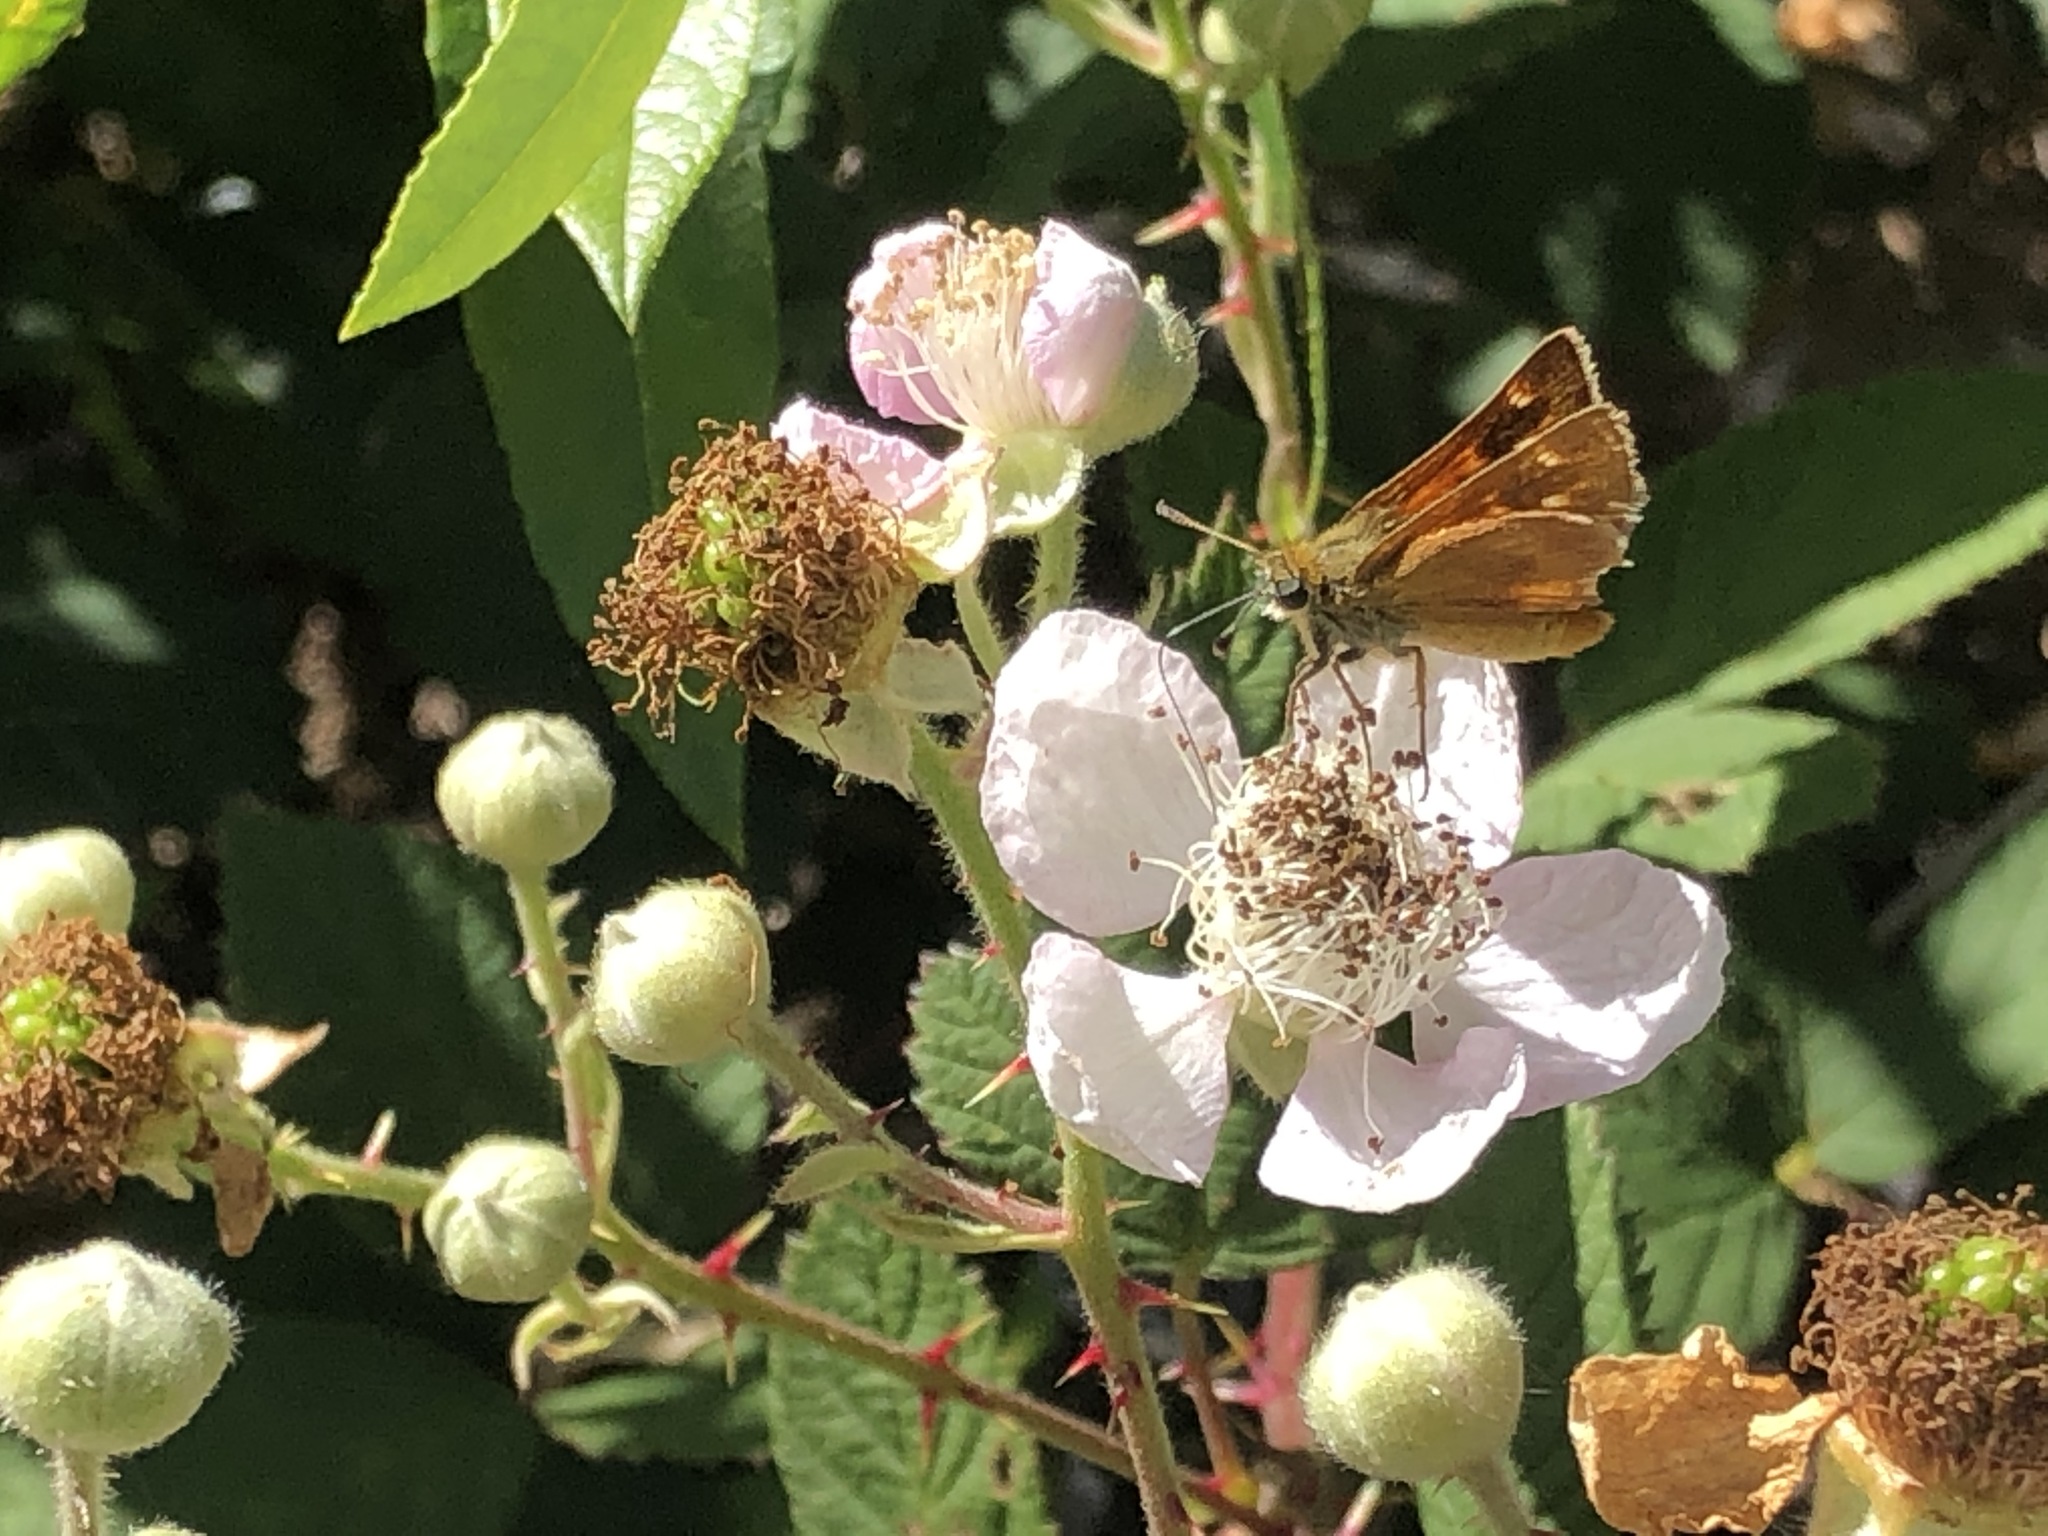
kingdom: Animalia
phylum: Arthropoda
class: Insecta
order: Lepidoptera
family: Hesperiidae
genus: Ochlodes
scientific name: Ochlodes agricola
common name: Rural skipper
